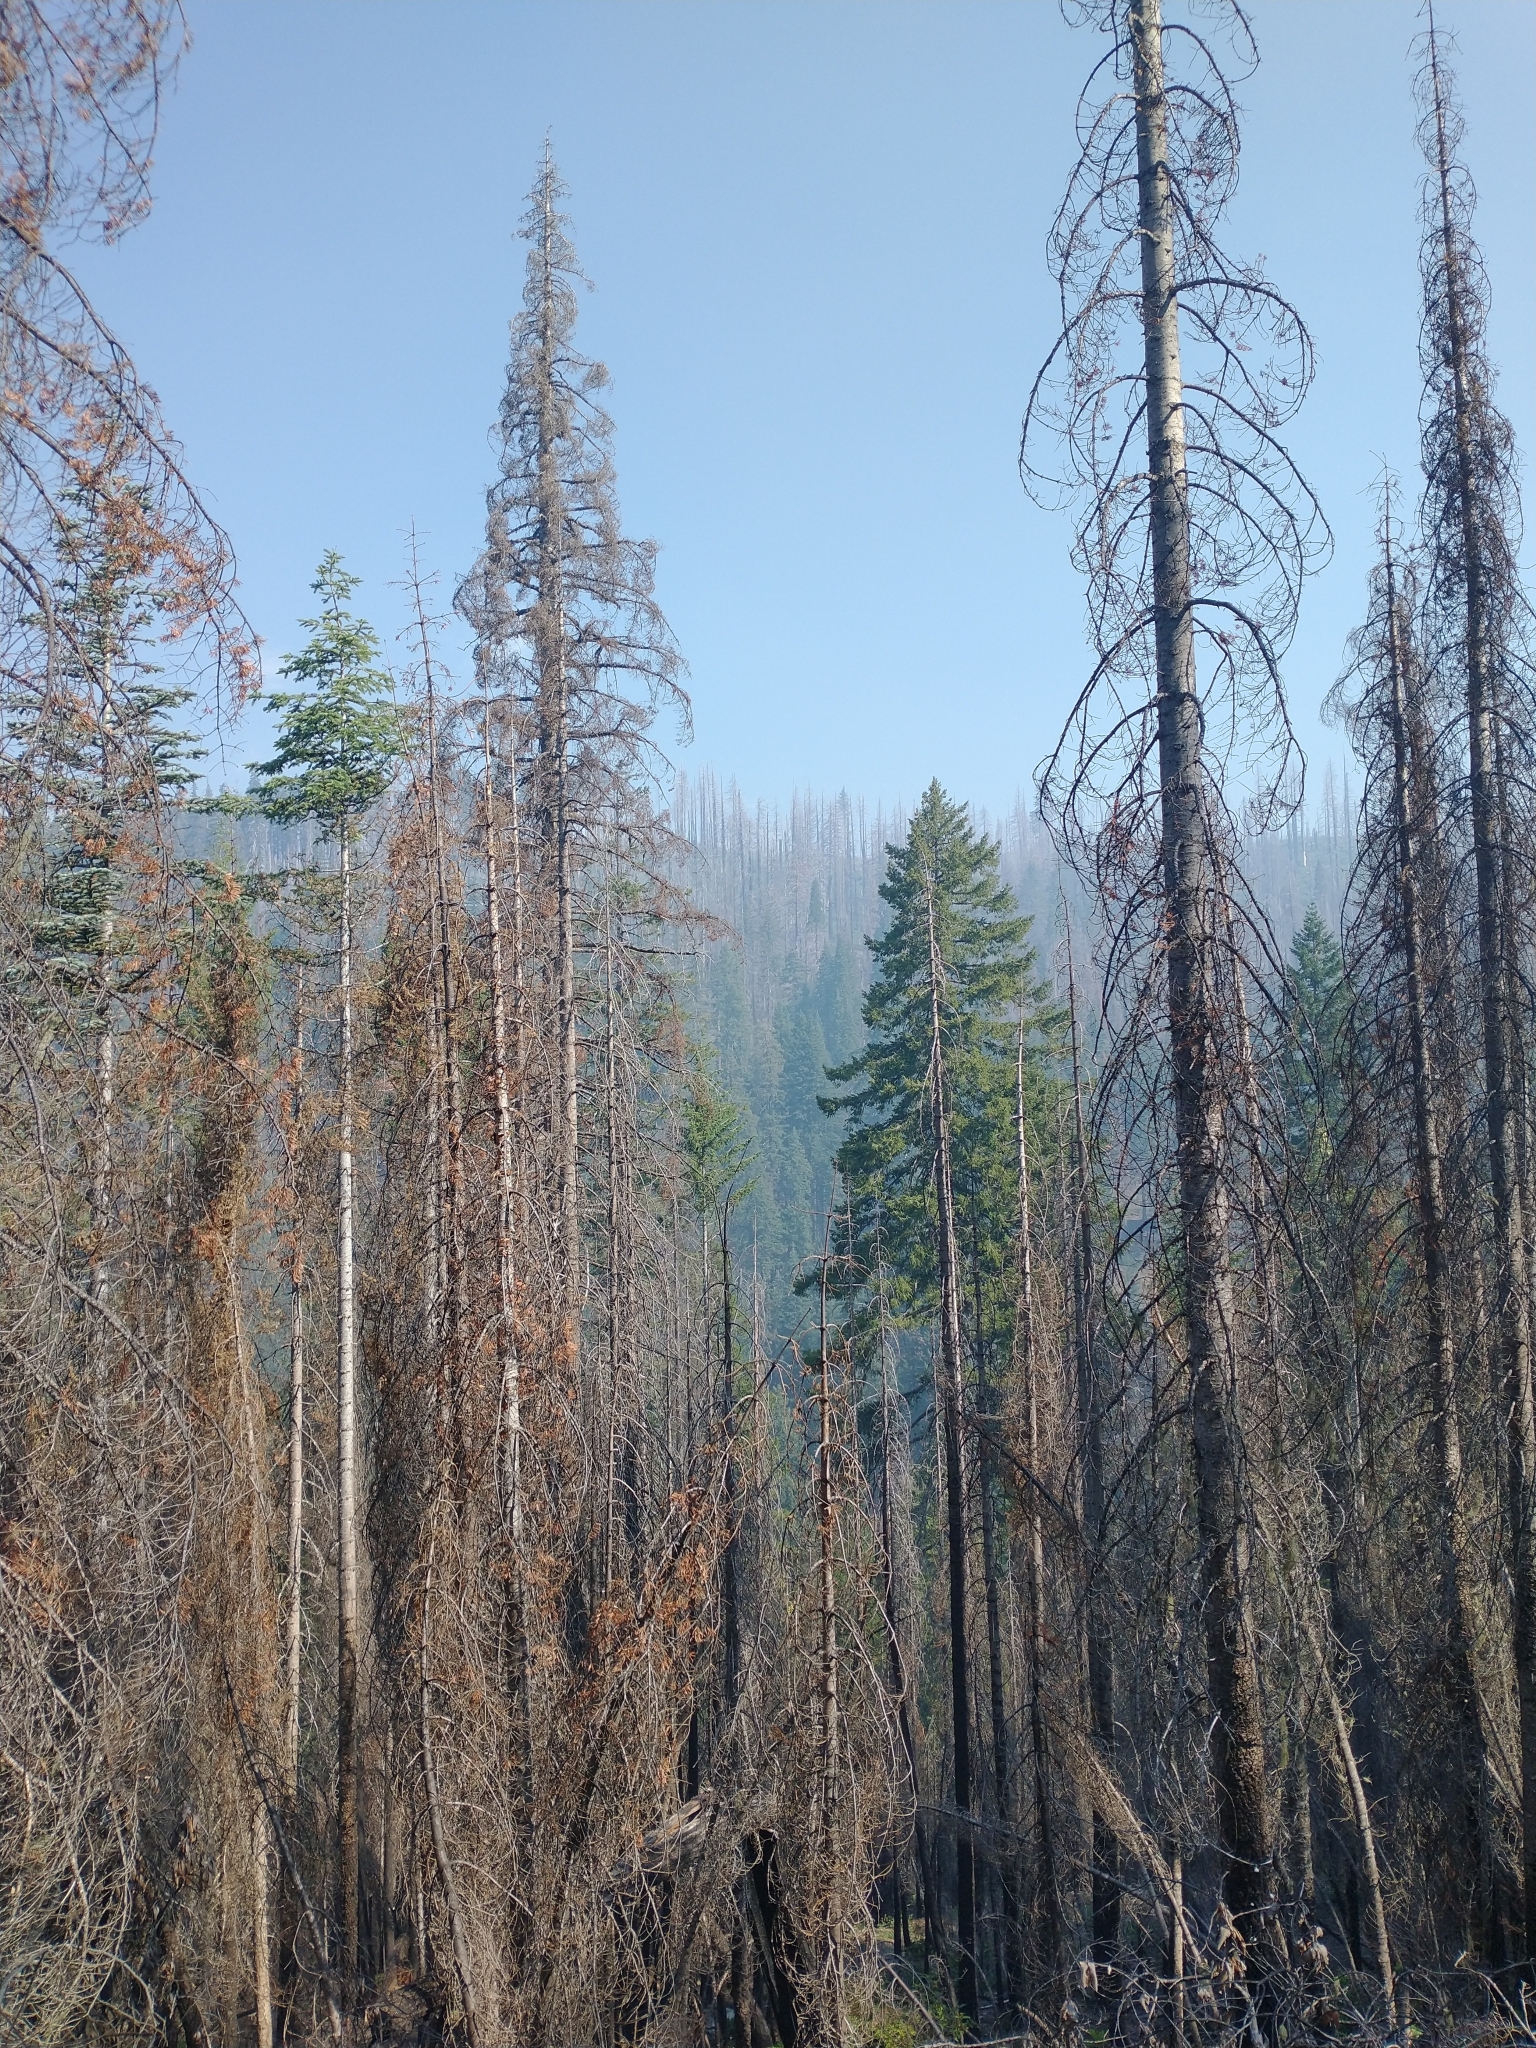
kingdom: Plantae
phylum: Tracheophyta
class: Pinopsida
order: Pinales
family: Pinaceae
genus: Pseudotsuga
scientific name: Pseudotsuga menziesii
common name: Douglas fir
